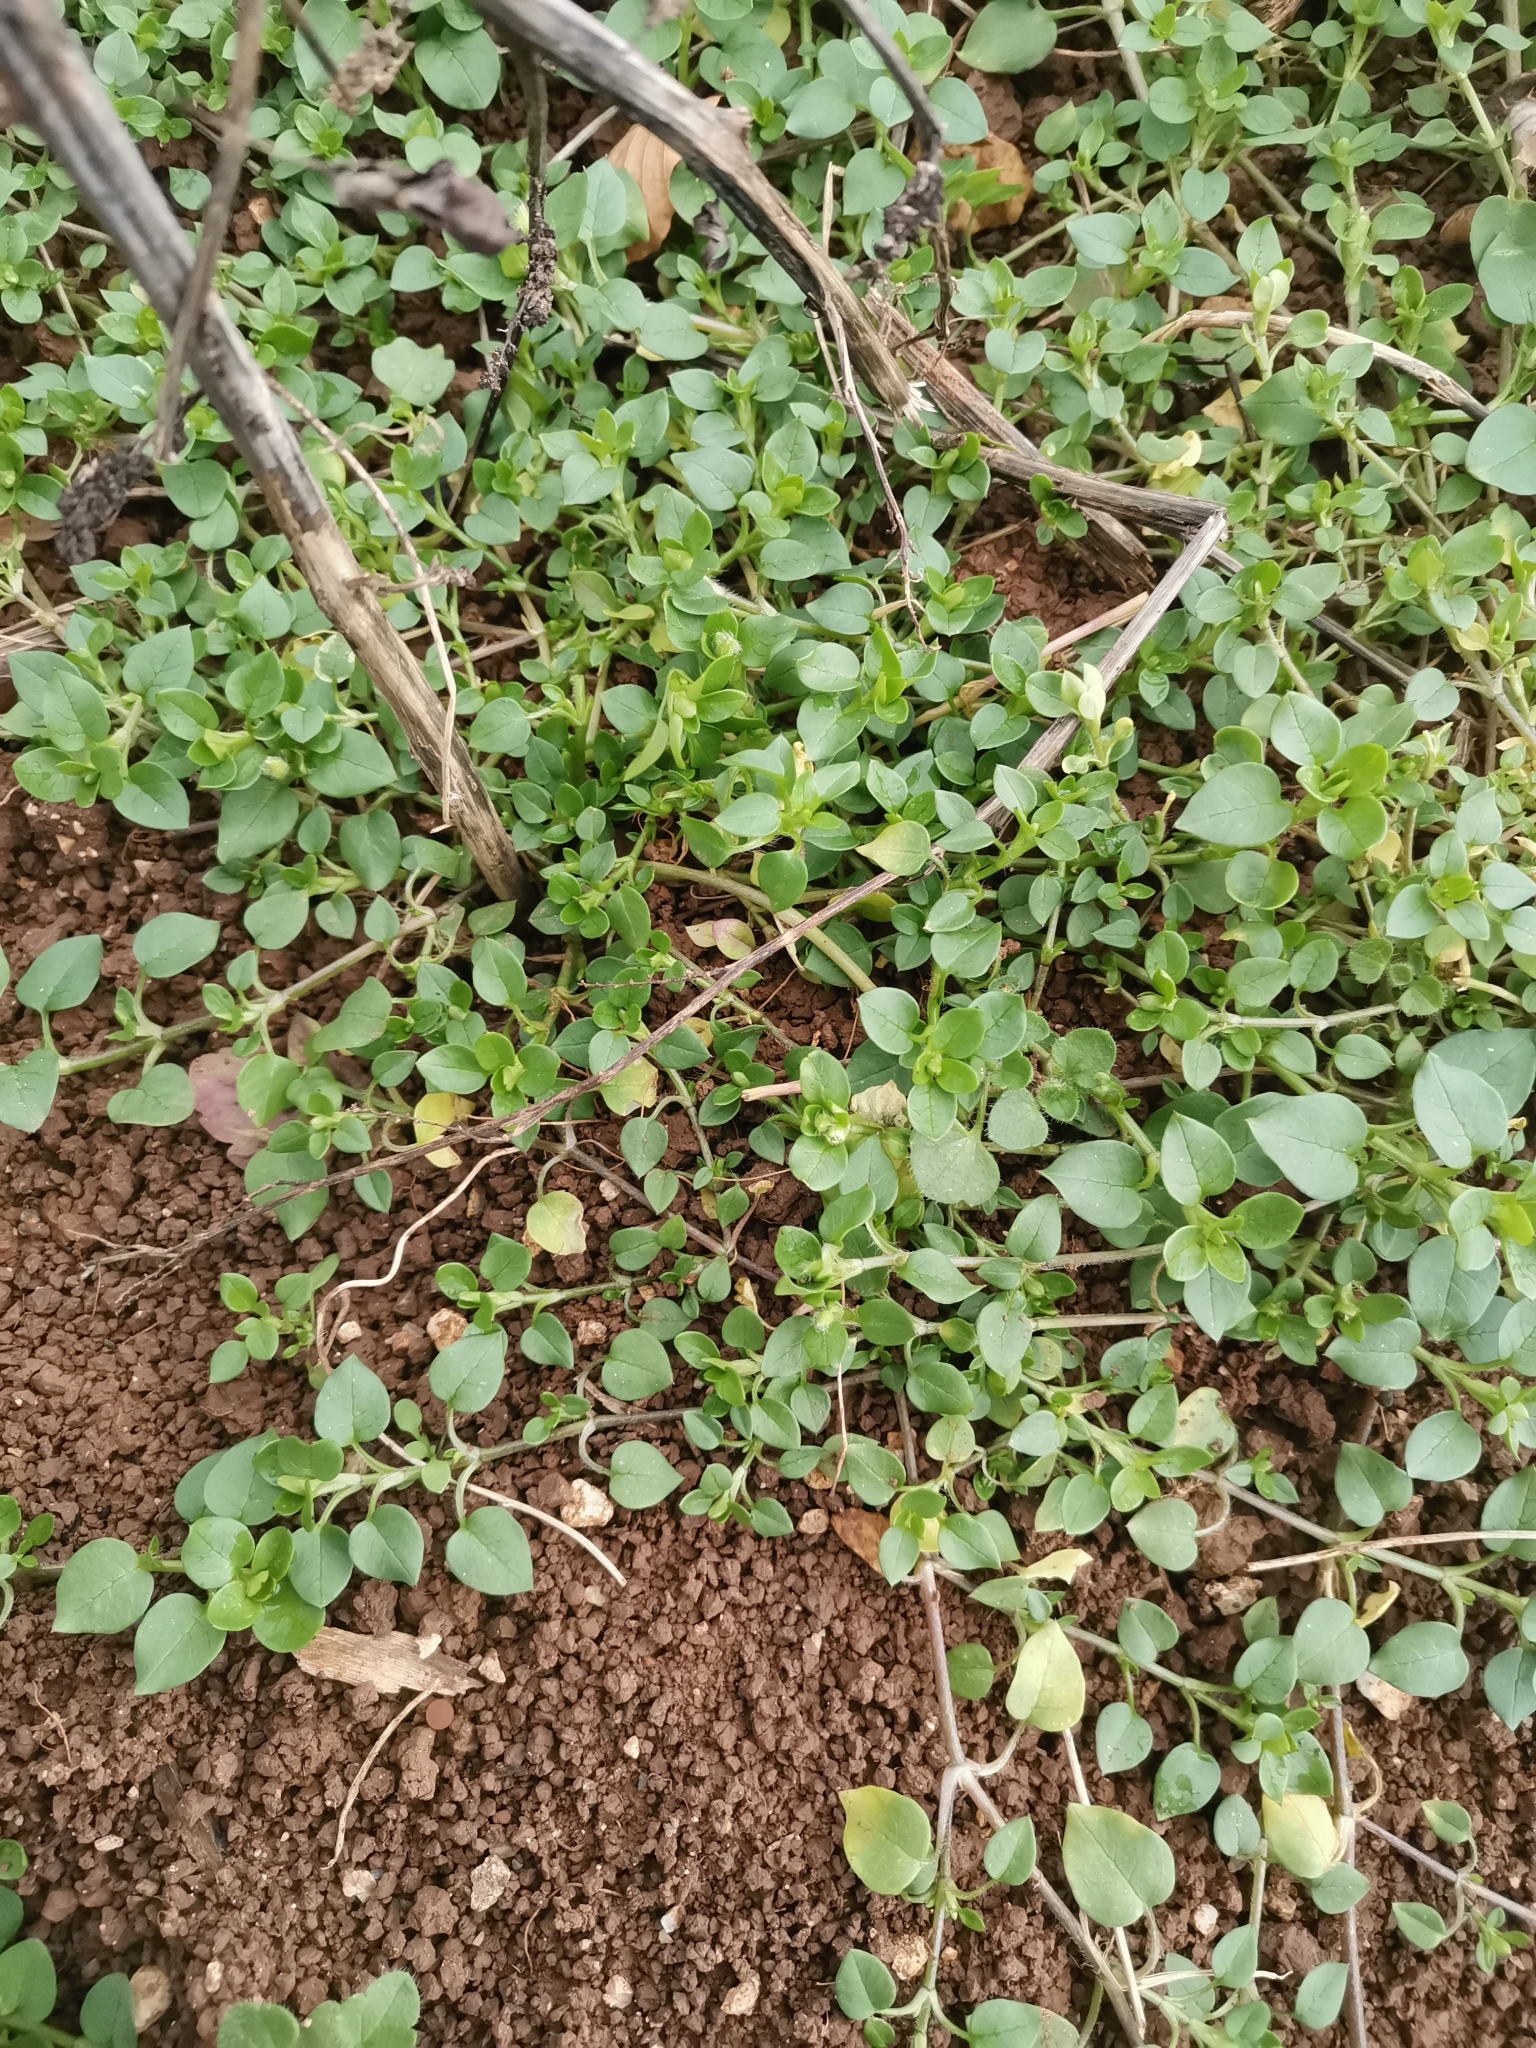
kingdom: Plantae
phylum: Tracheophyta
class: Magnoliopsida
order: Caryophyllales
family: Caryophyllaceae
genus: Stellaria
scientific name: Stellaria media
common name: Common chickweed
